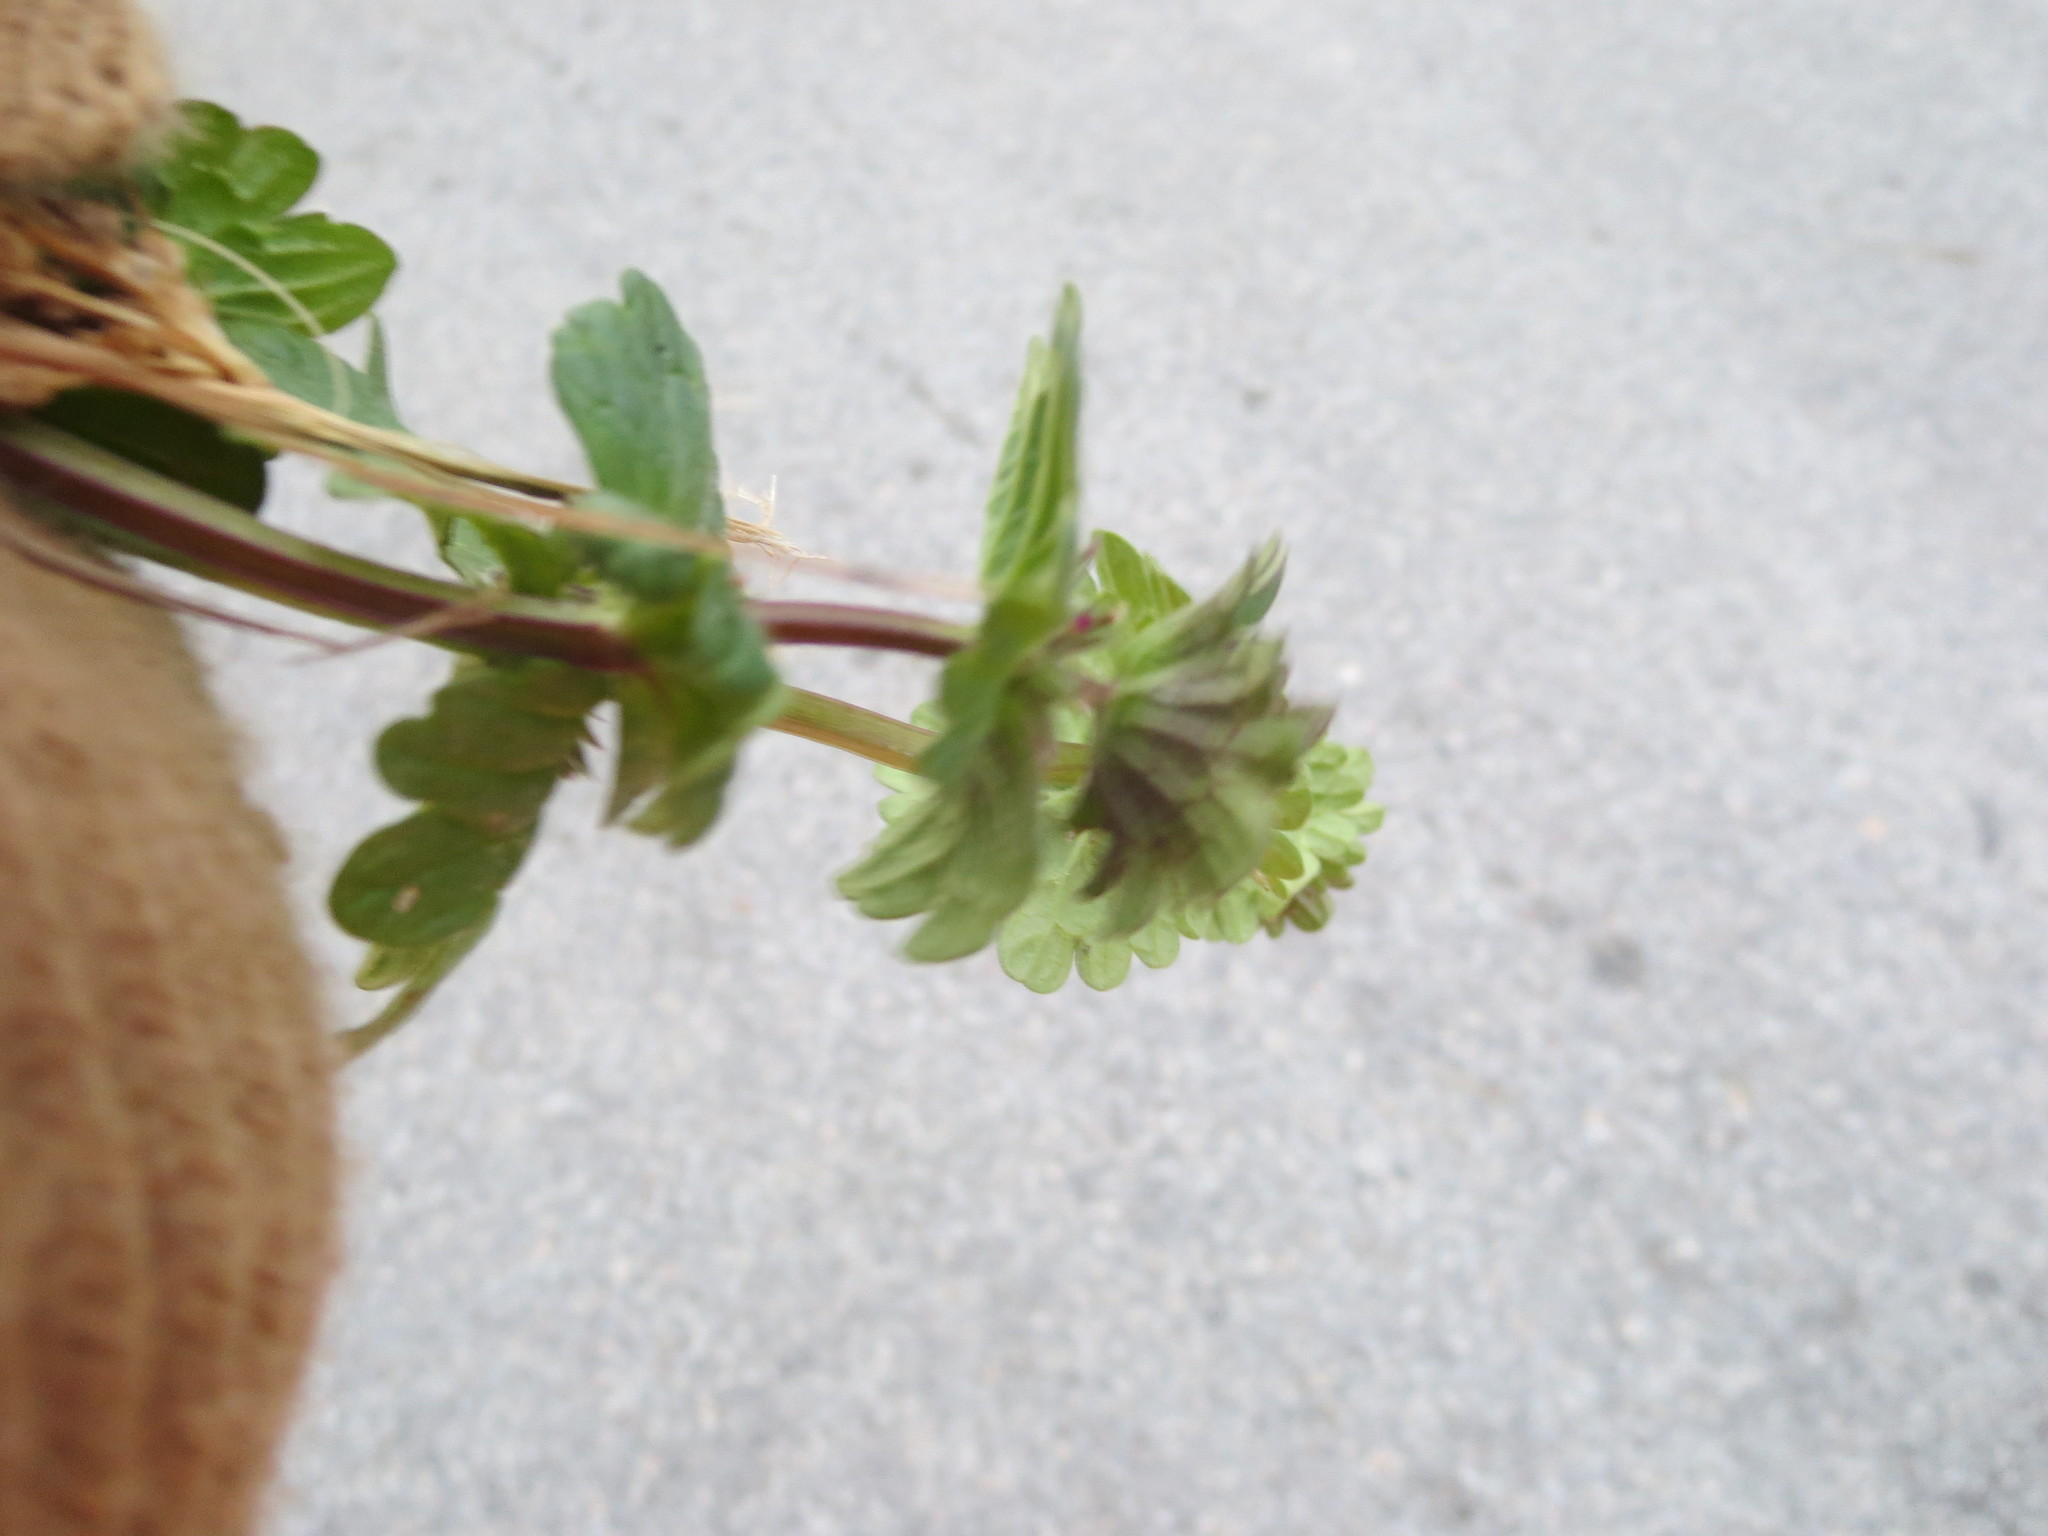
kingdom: Plantae
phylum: Tracheophyta
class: Magnoliopsida
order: Lamiales
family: Lamiaceae
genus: Lamium
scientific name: Lamium amplexicaule
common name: Henbit dead-nettle
